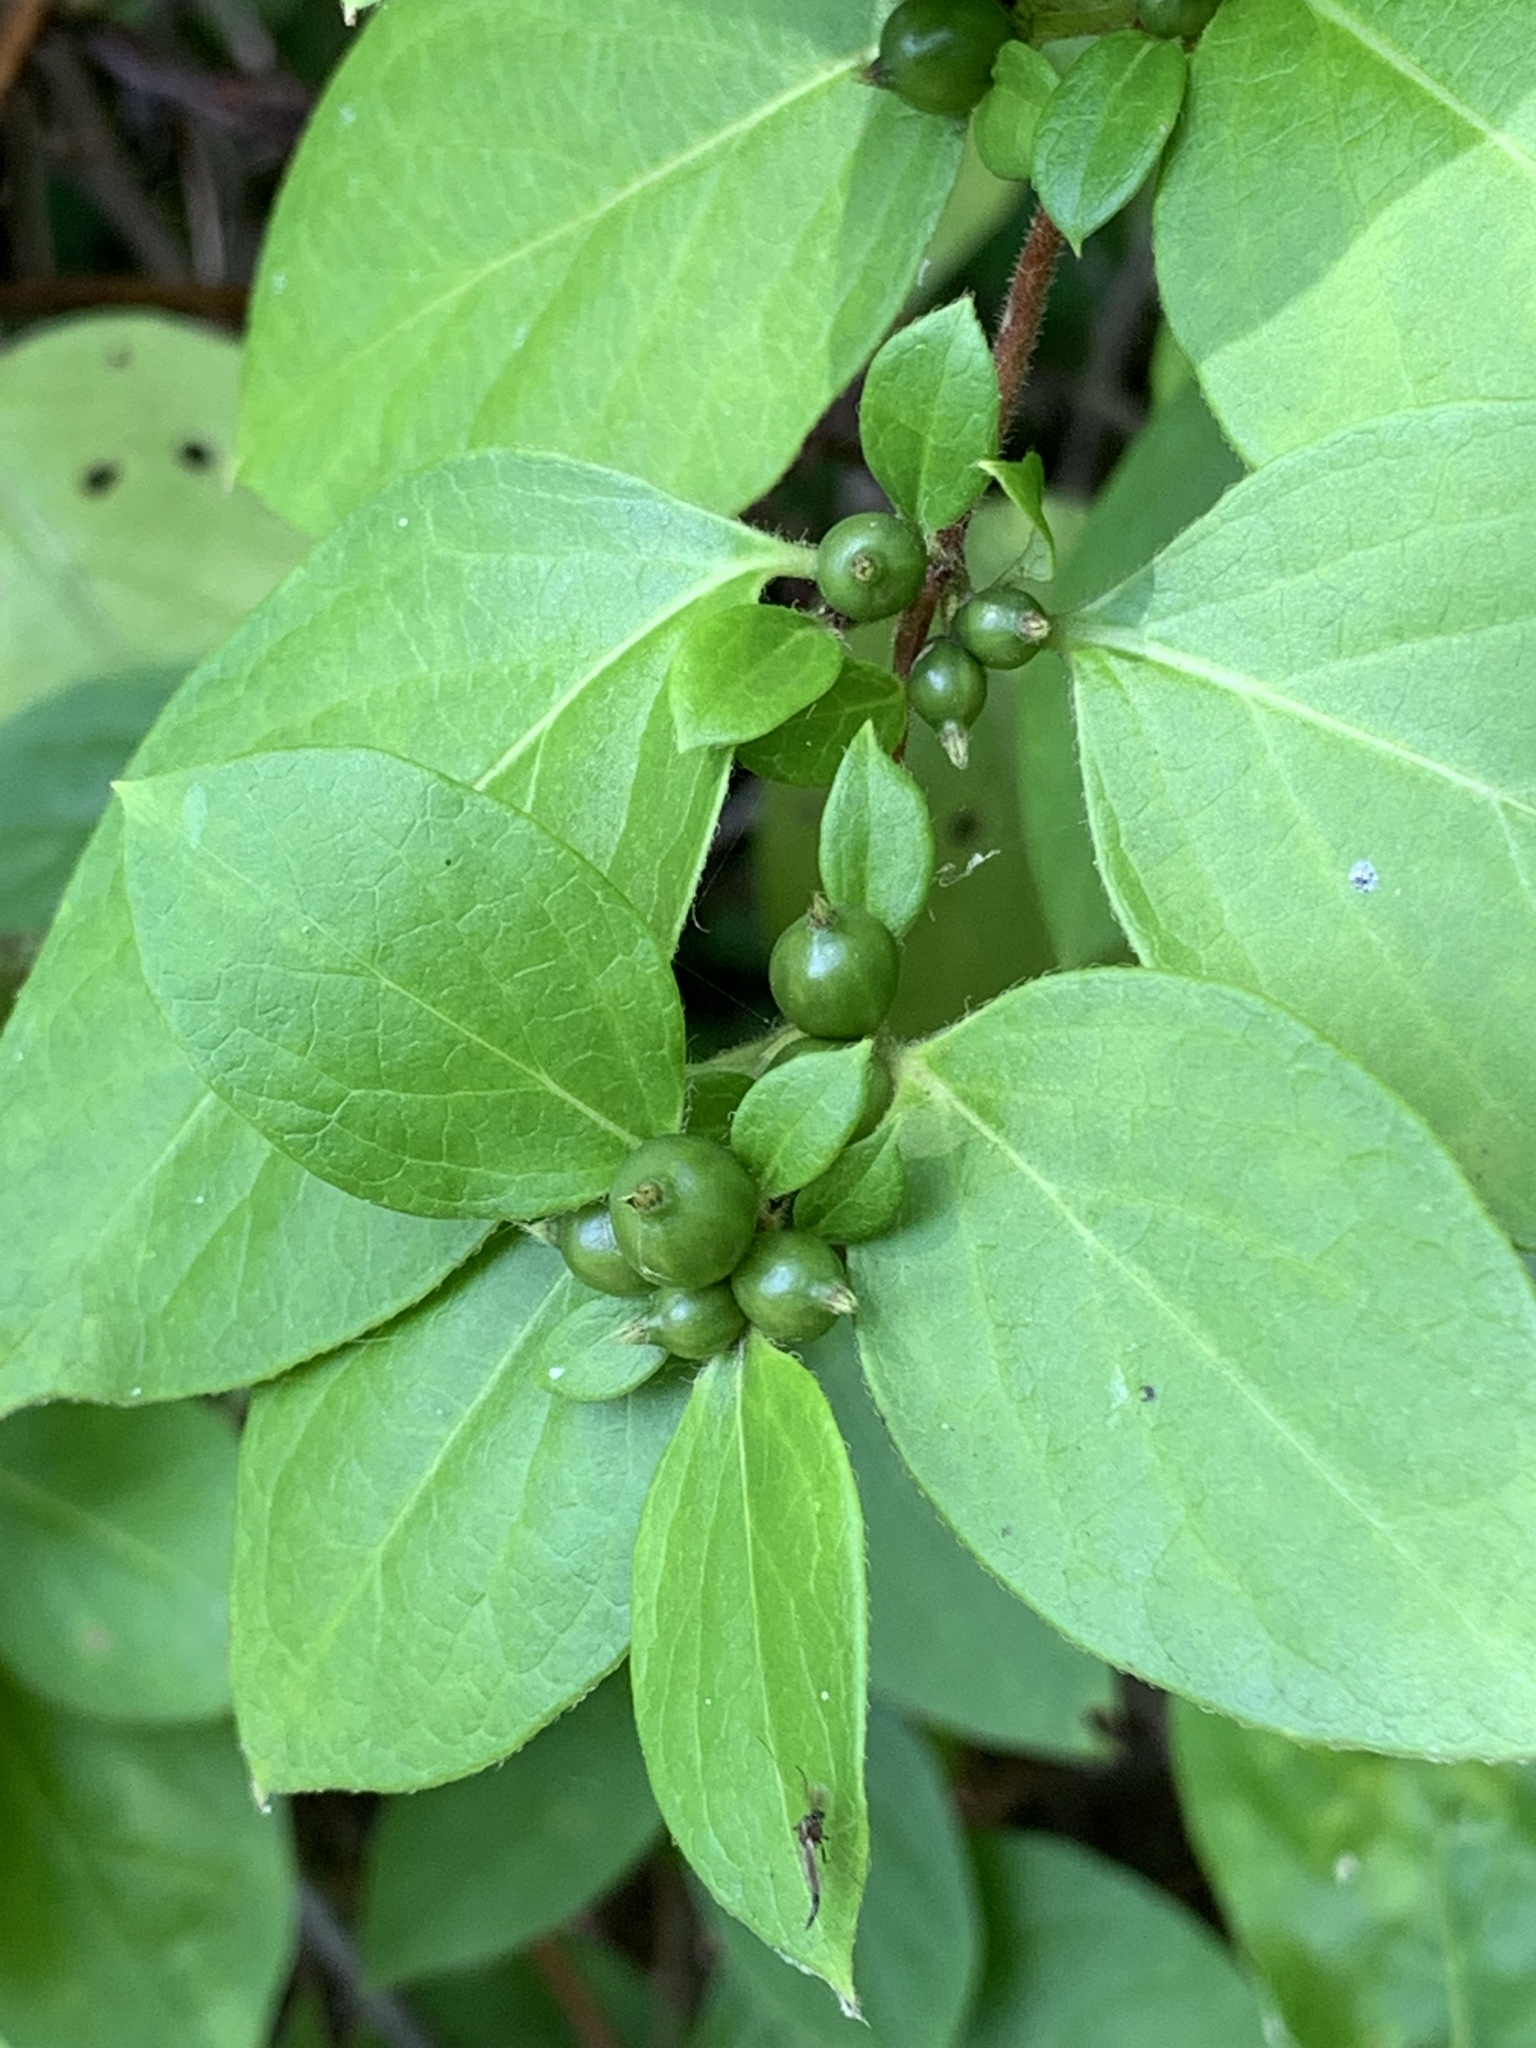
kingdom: Plantae
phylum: Tracheophyta
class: Magnoliopsida
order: Dipsacales
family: Caprifoliaceae
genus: Lonicera
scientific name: Lonicera japonica
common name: Japanese honeysuckle
